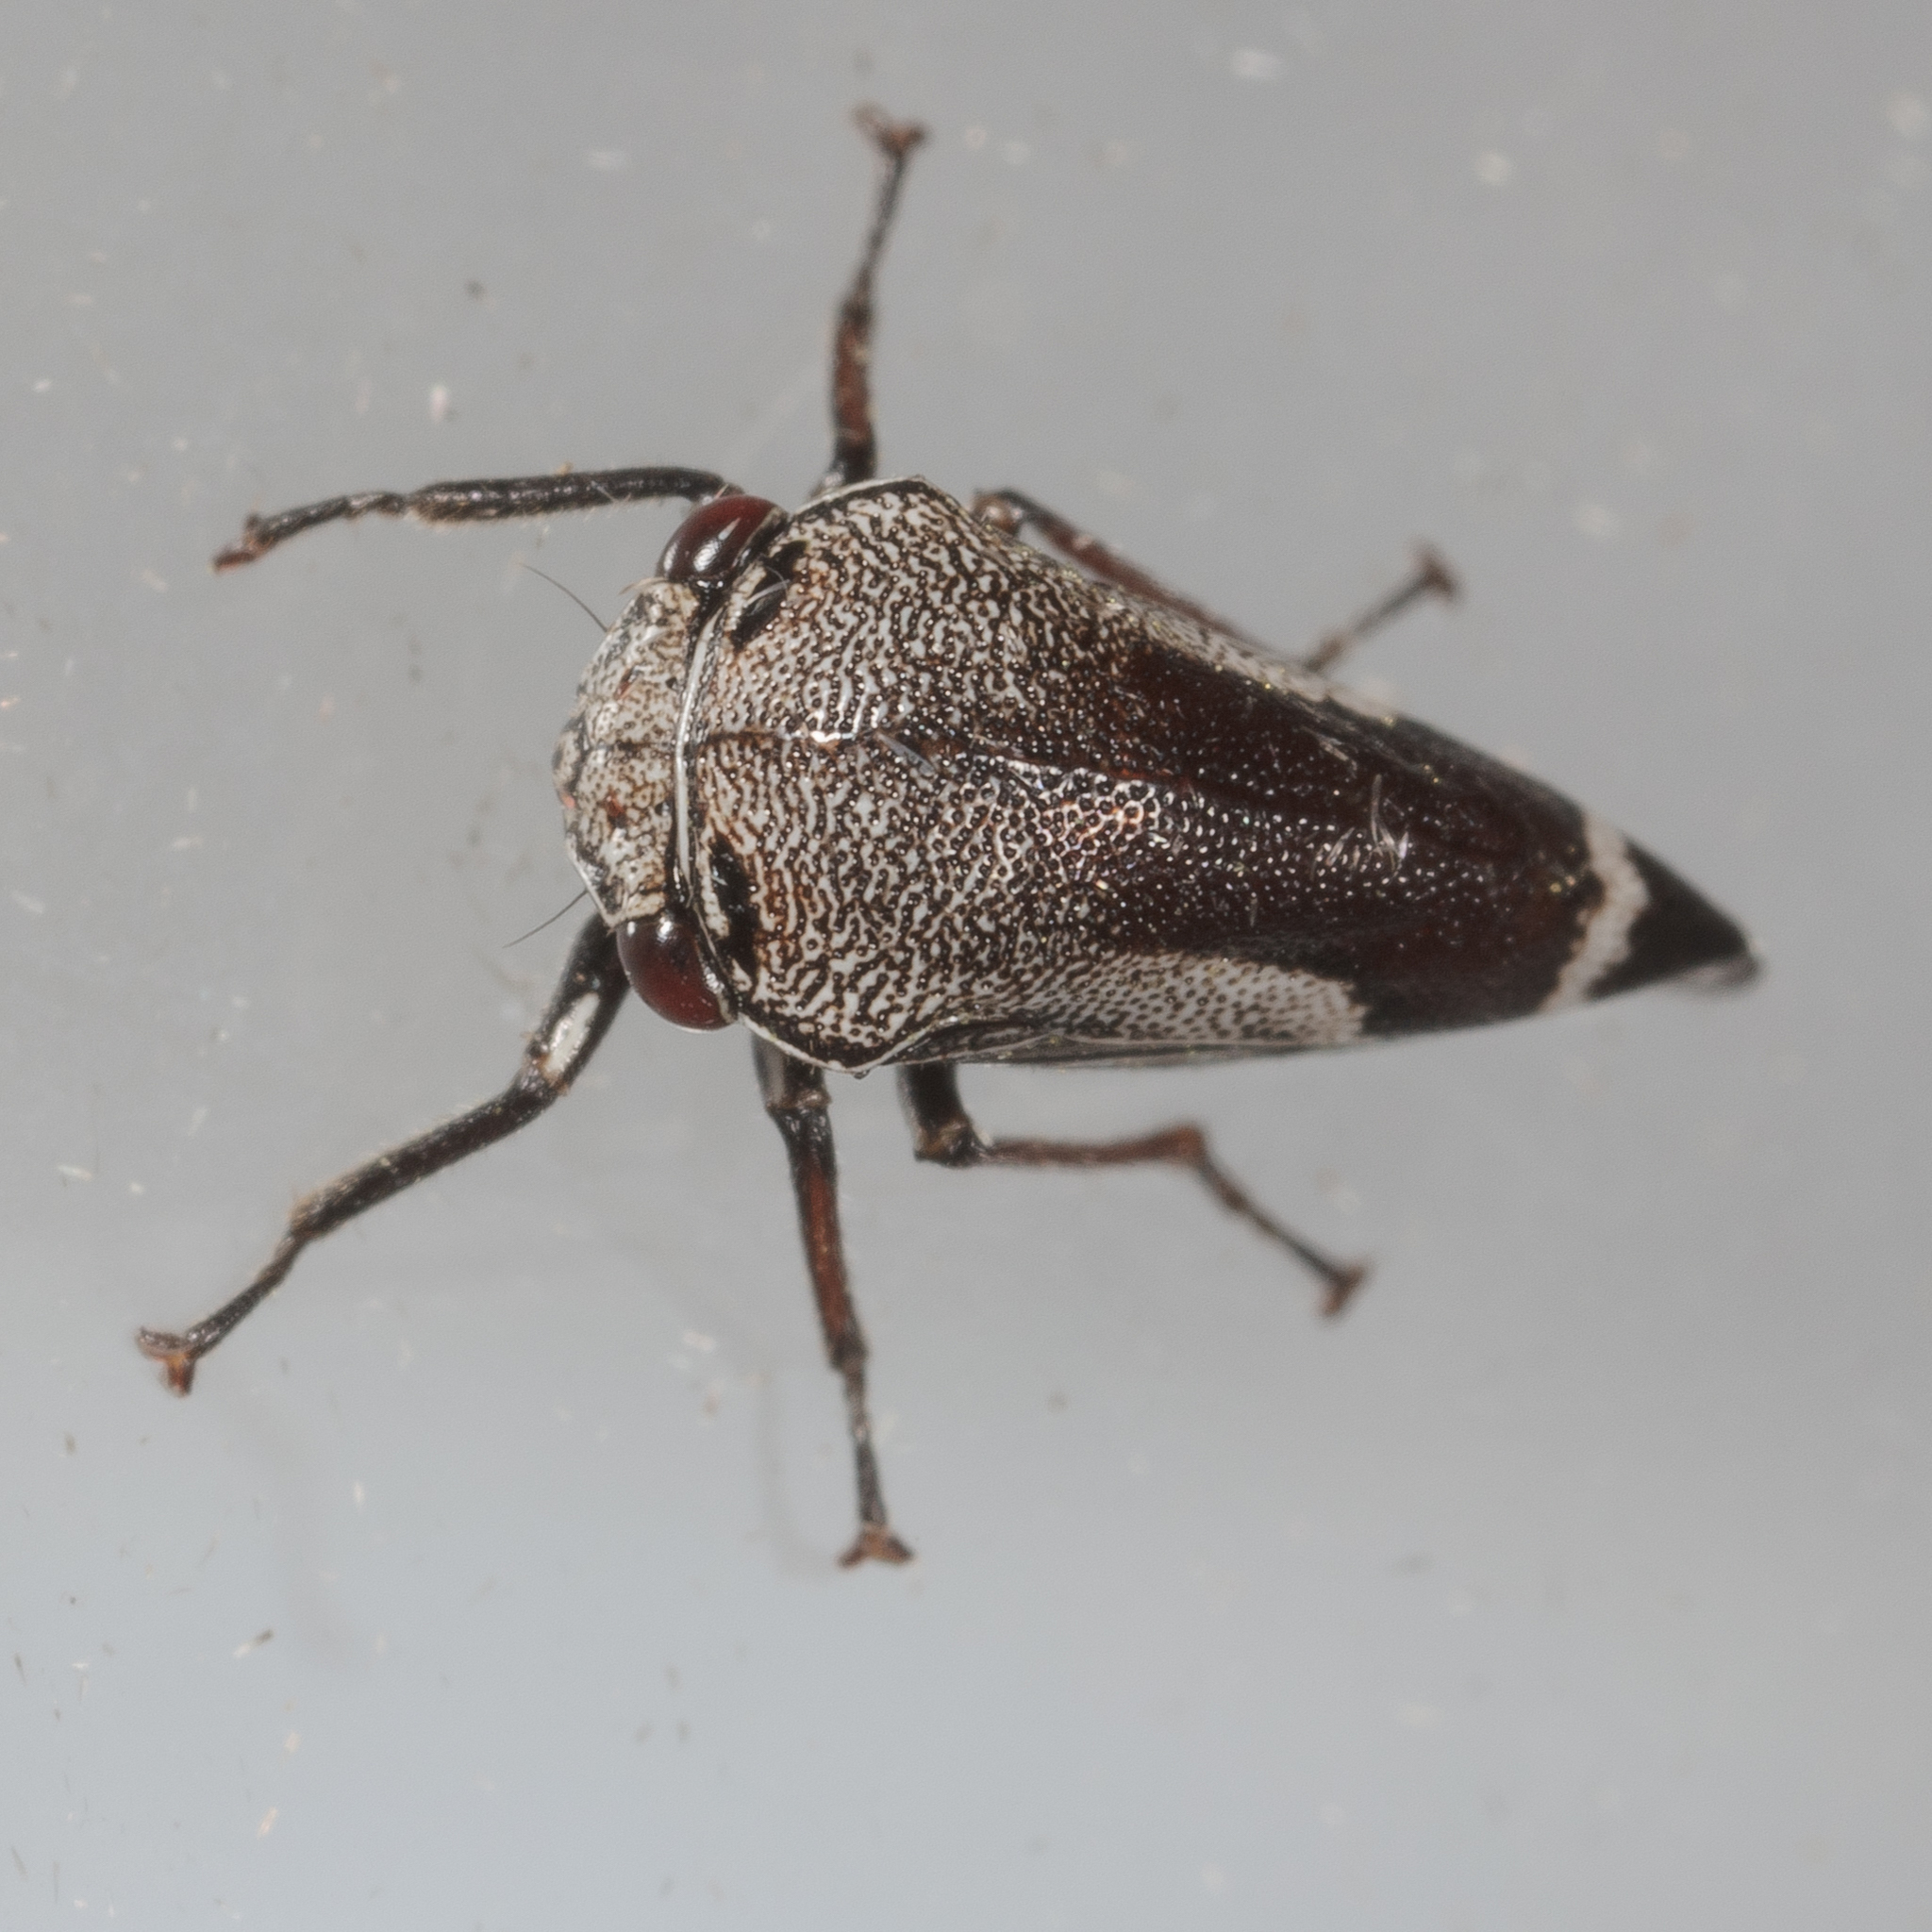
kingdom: Animalia
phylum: Arthropoda
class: Insecta
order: Hemiptera
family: Membracidae
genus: Xantholobus
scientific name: Xantholobus nigrocincta
